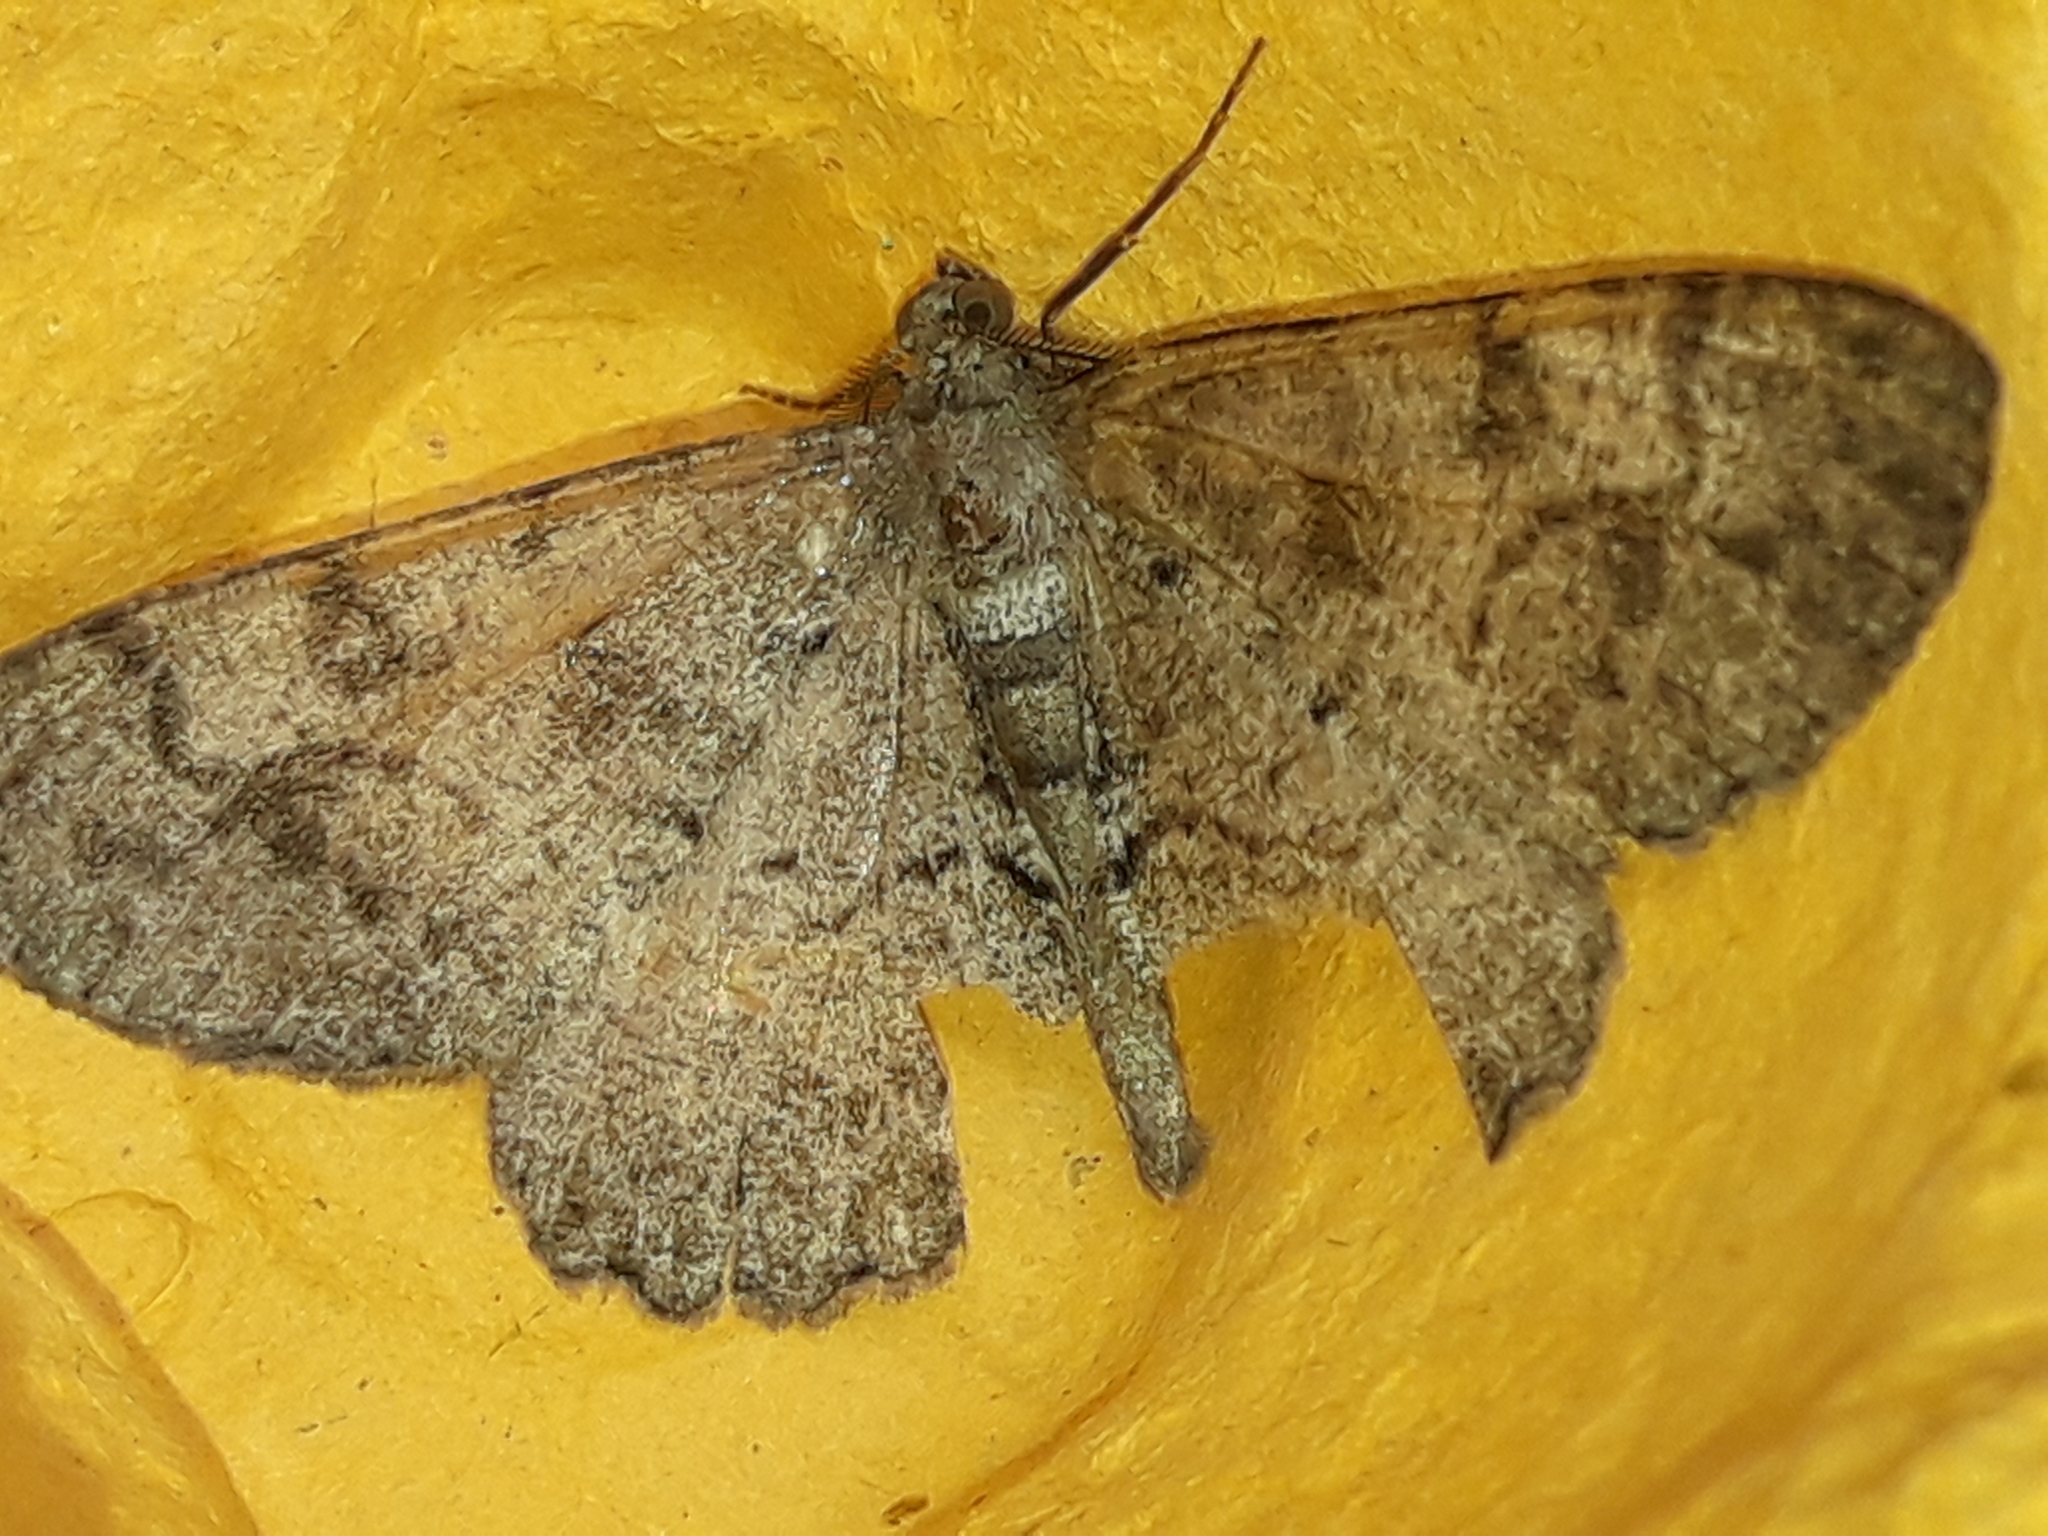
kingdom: Animalia
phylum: Arthropoda
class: Insecta
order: Lepidoptera
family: Geometridae
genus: Alcis
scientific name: Alcis repandata
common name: Mottled beauty
